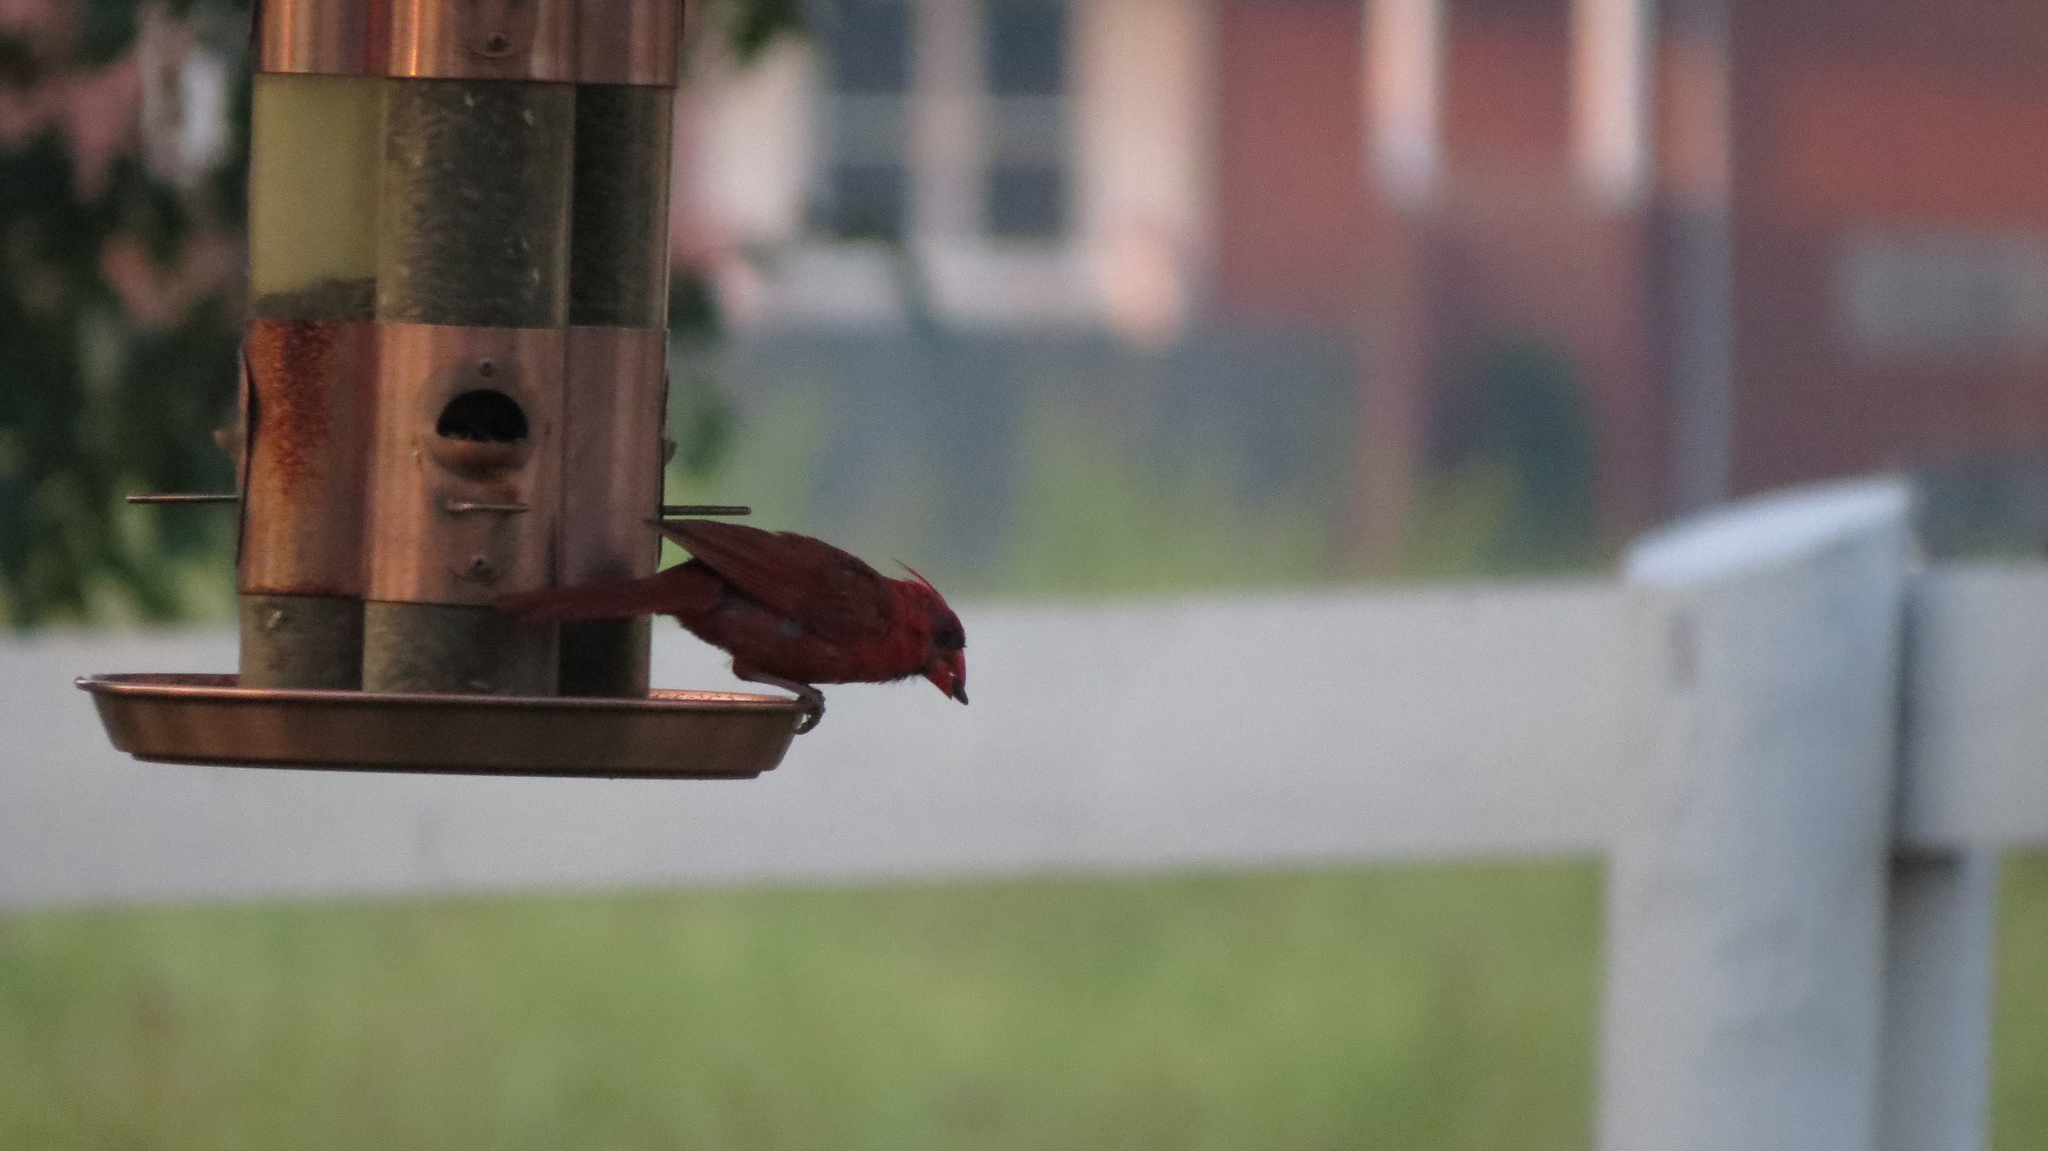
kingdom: Animalia
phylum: Chordata
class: Aves
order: Passeriformes
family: Cardinalidae
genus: Cardinalis
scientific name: Cardinalis cardinalis
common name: Northern cardinal
